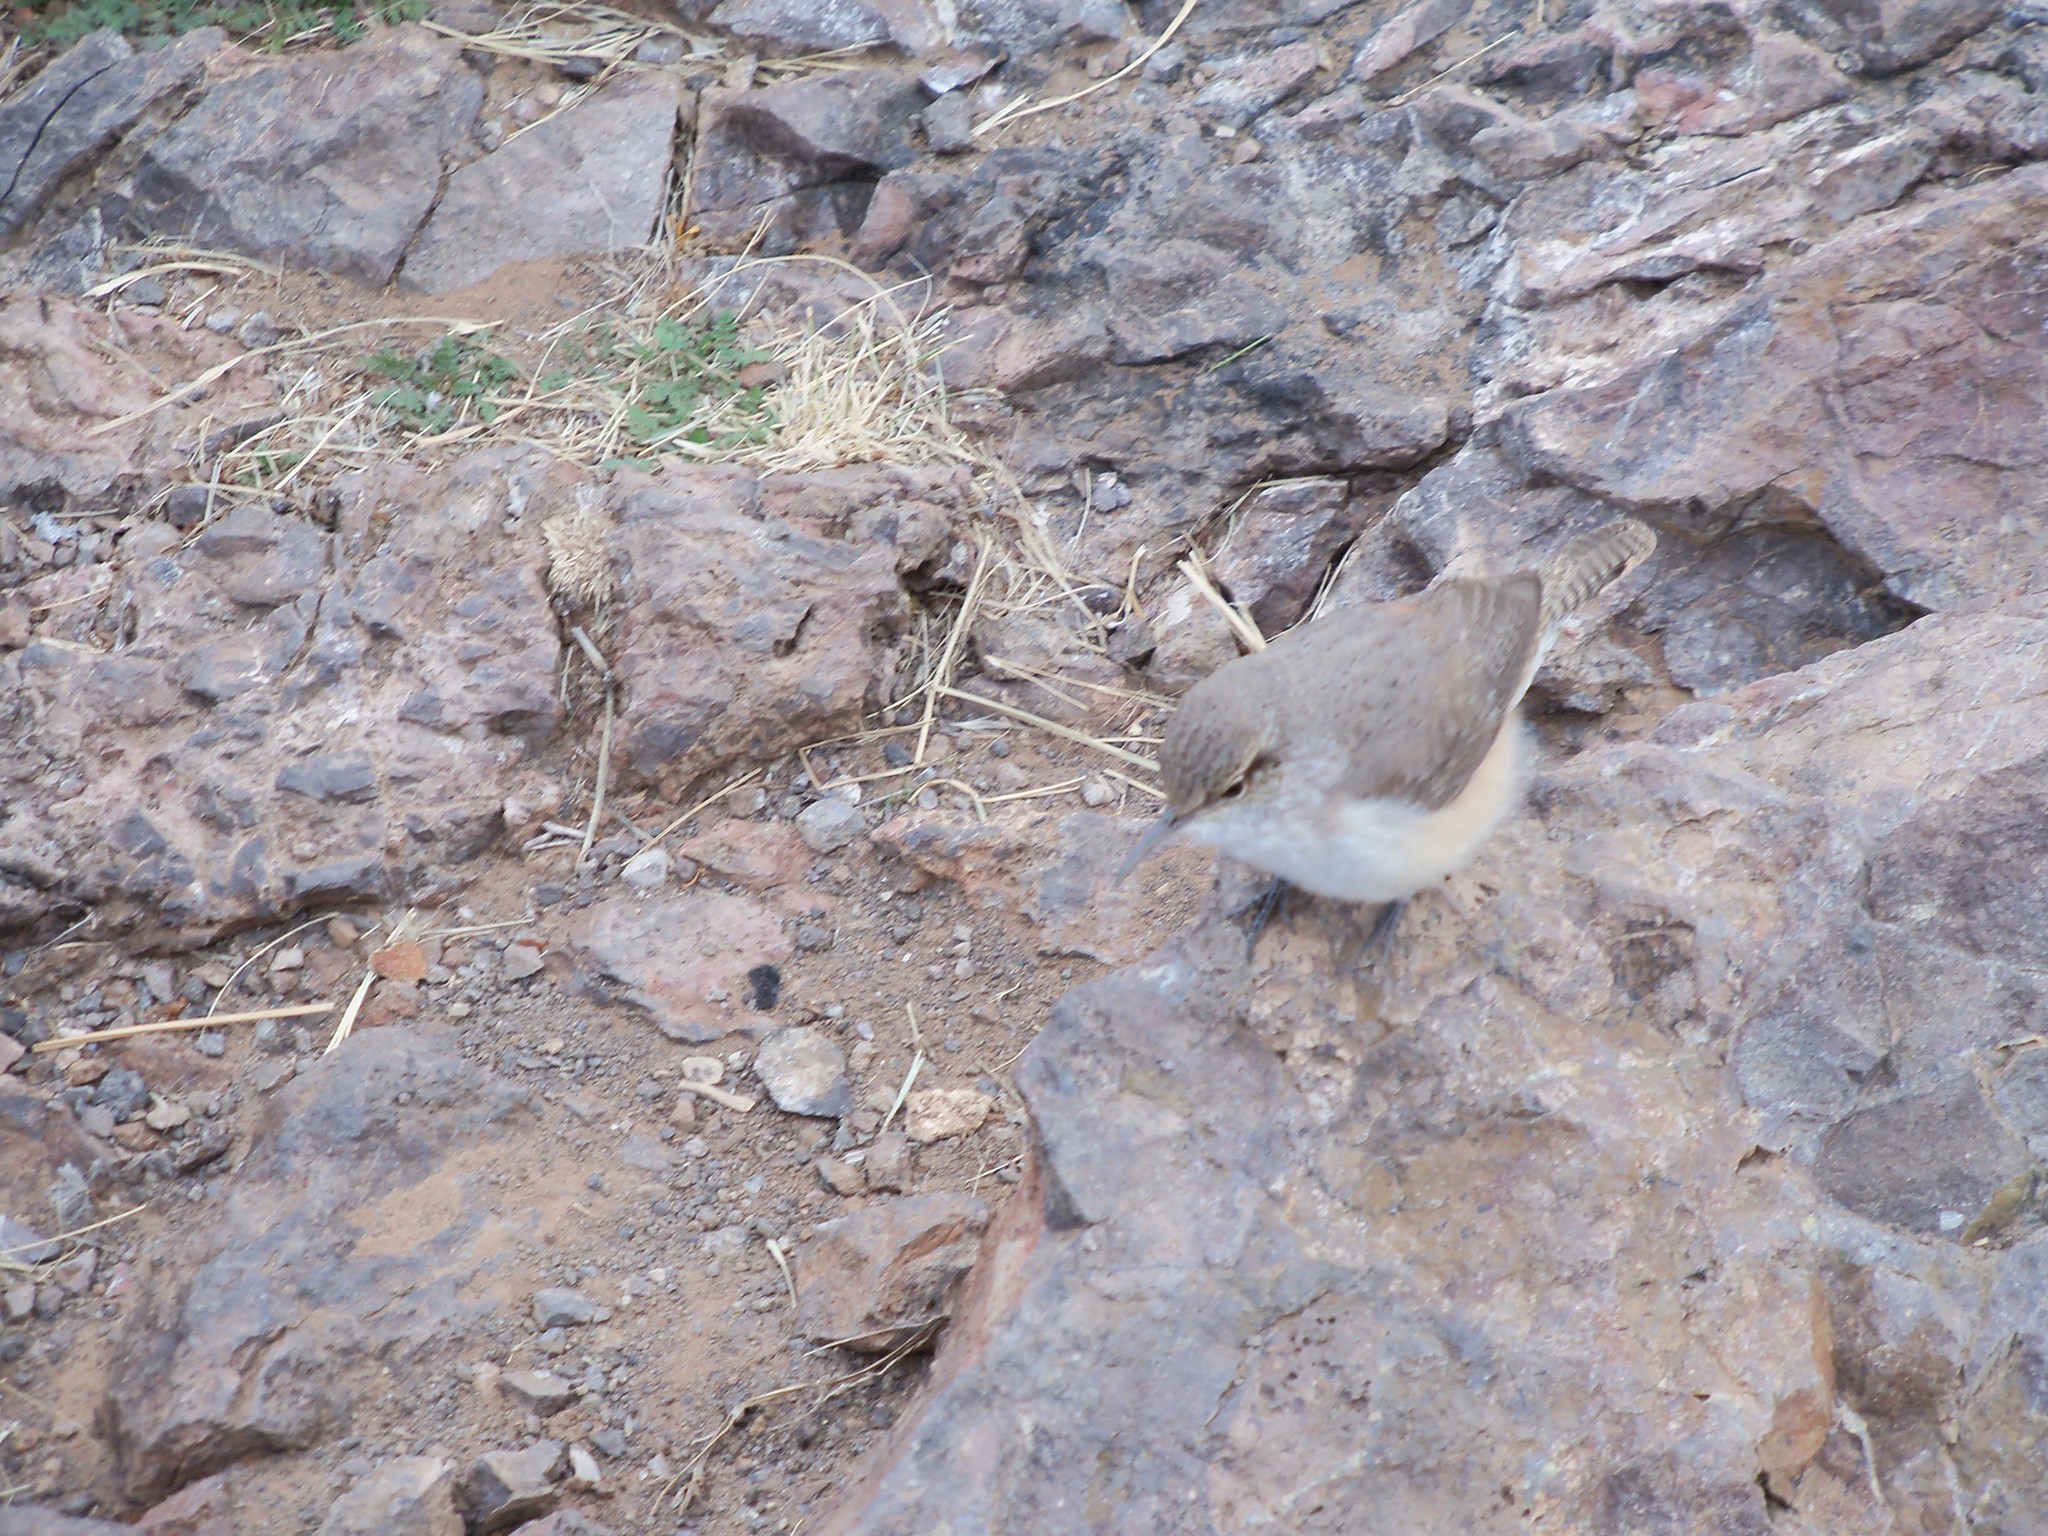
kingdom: Animalia
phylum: Chordata
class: Aves
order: Passeriformes
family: Troglodytidae
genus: Salpinctes
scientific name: Salpinctes obsoletus
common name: Rock wren
